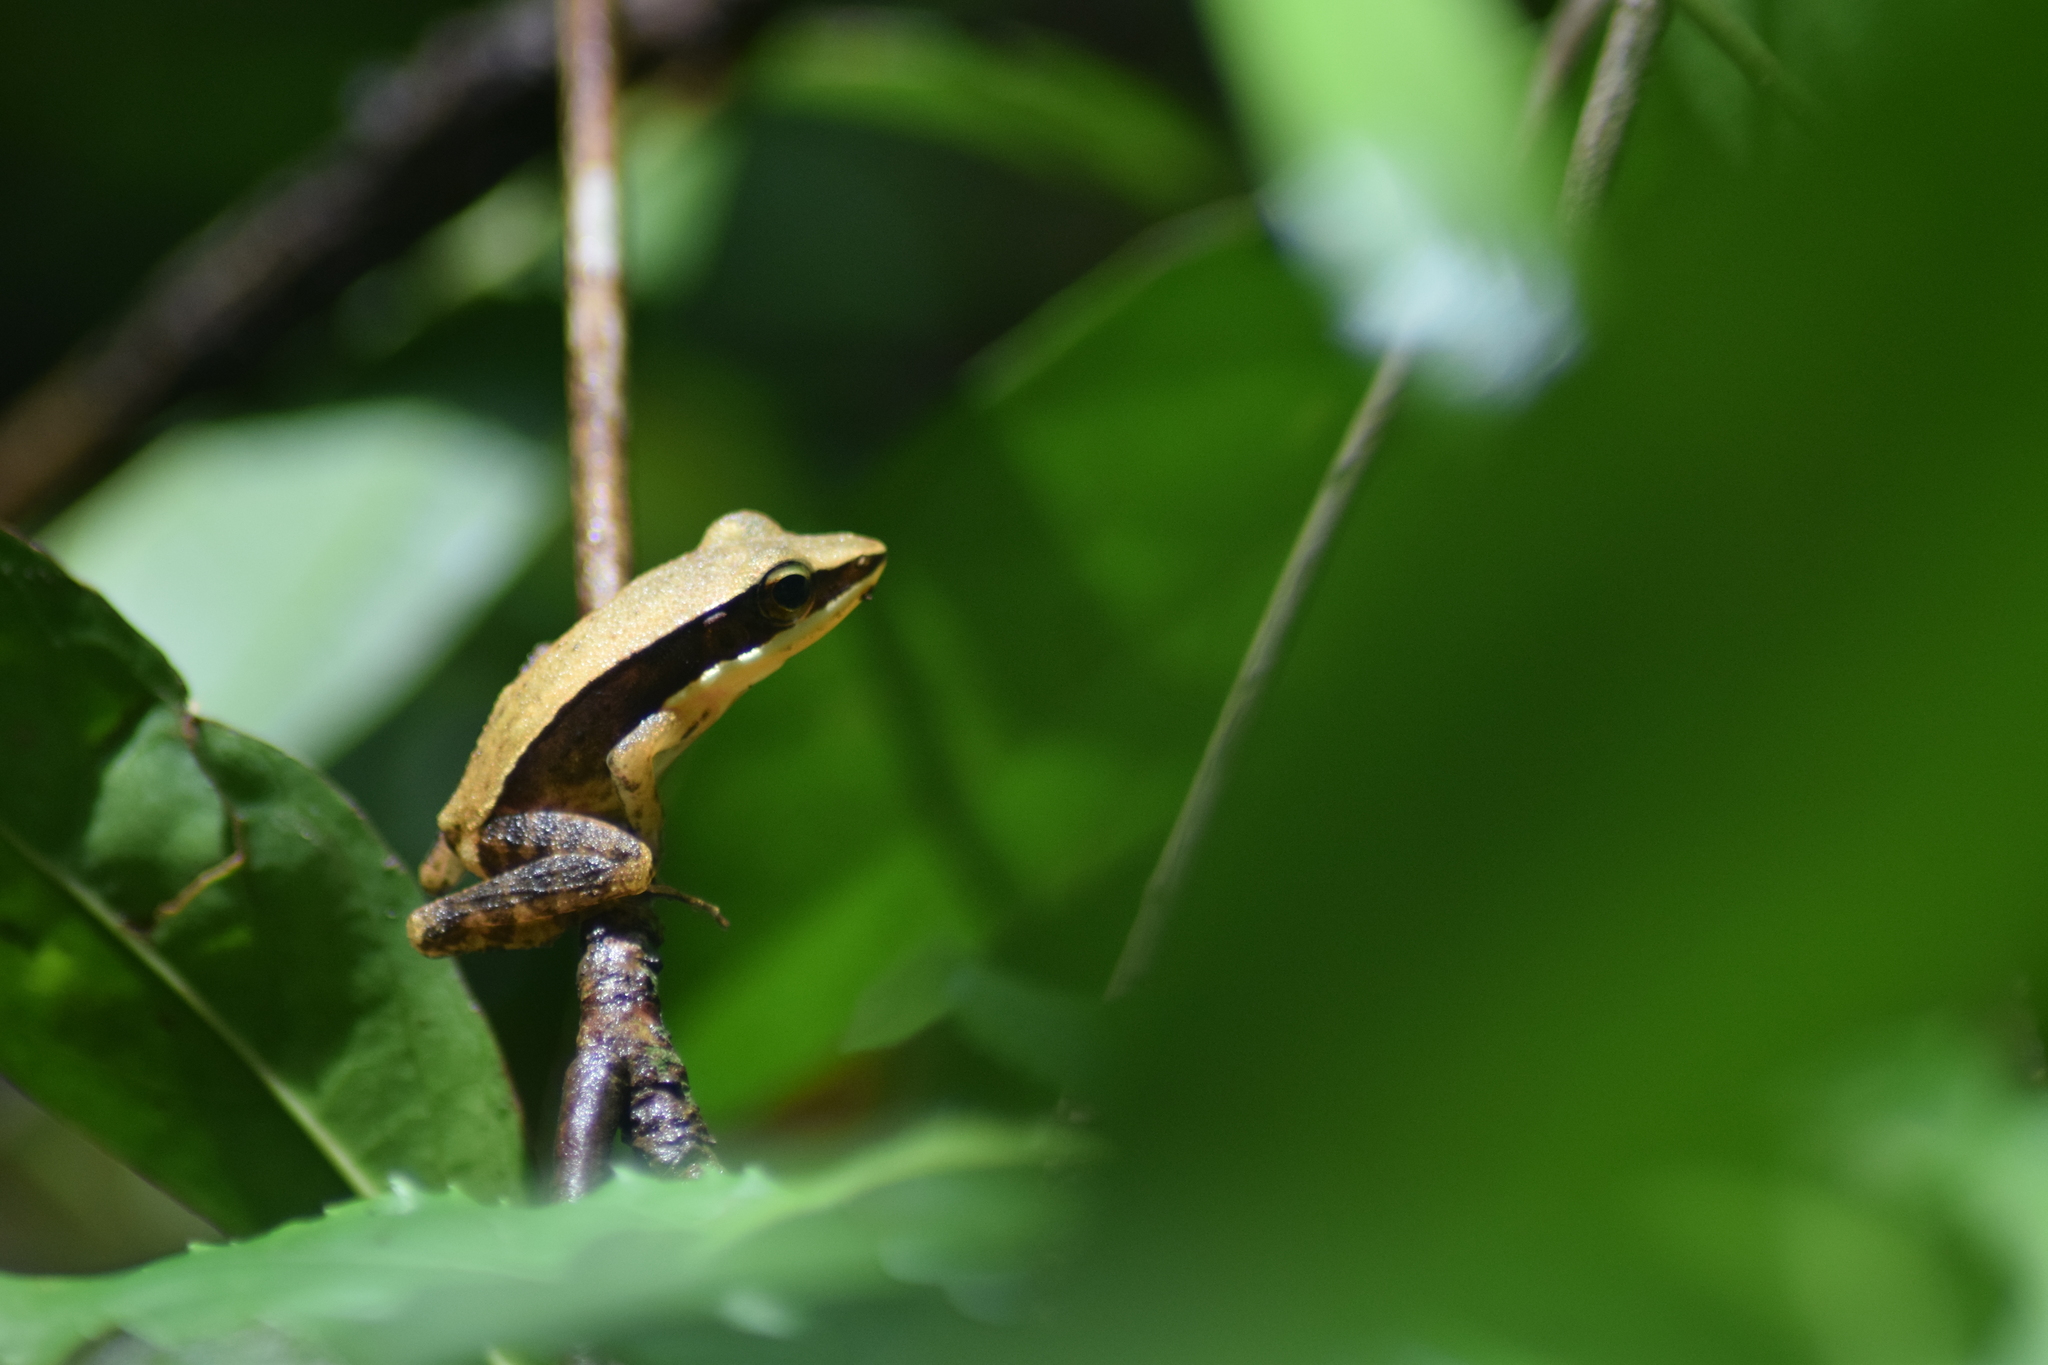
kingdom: Animalia
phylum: Chordata
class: Amphibia
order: Anura
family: Ranidae
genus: Indosylvirana
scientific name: Indosylvirana doni
